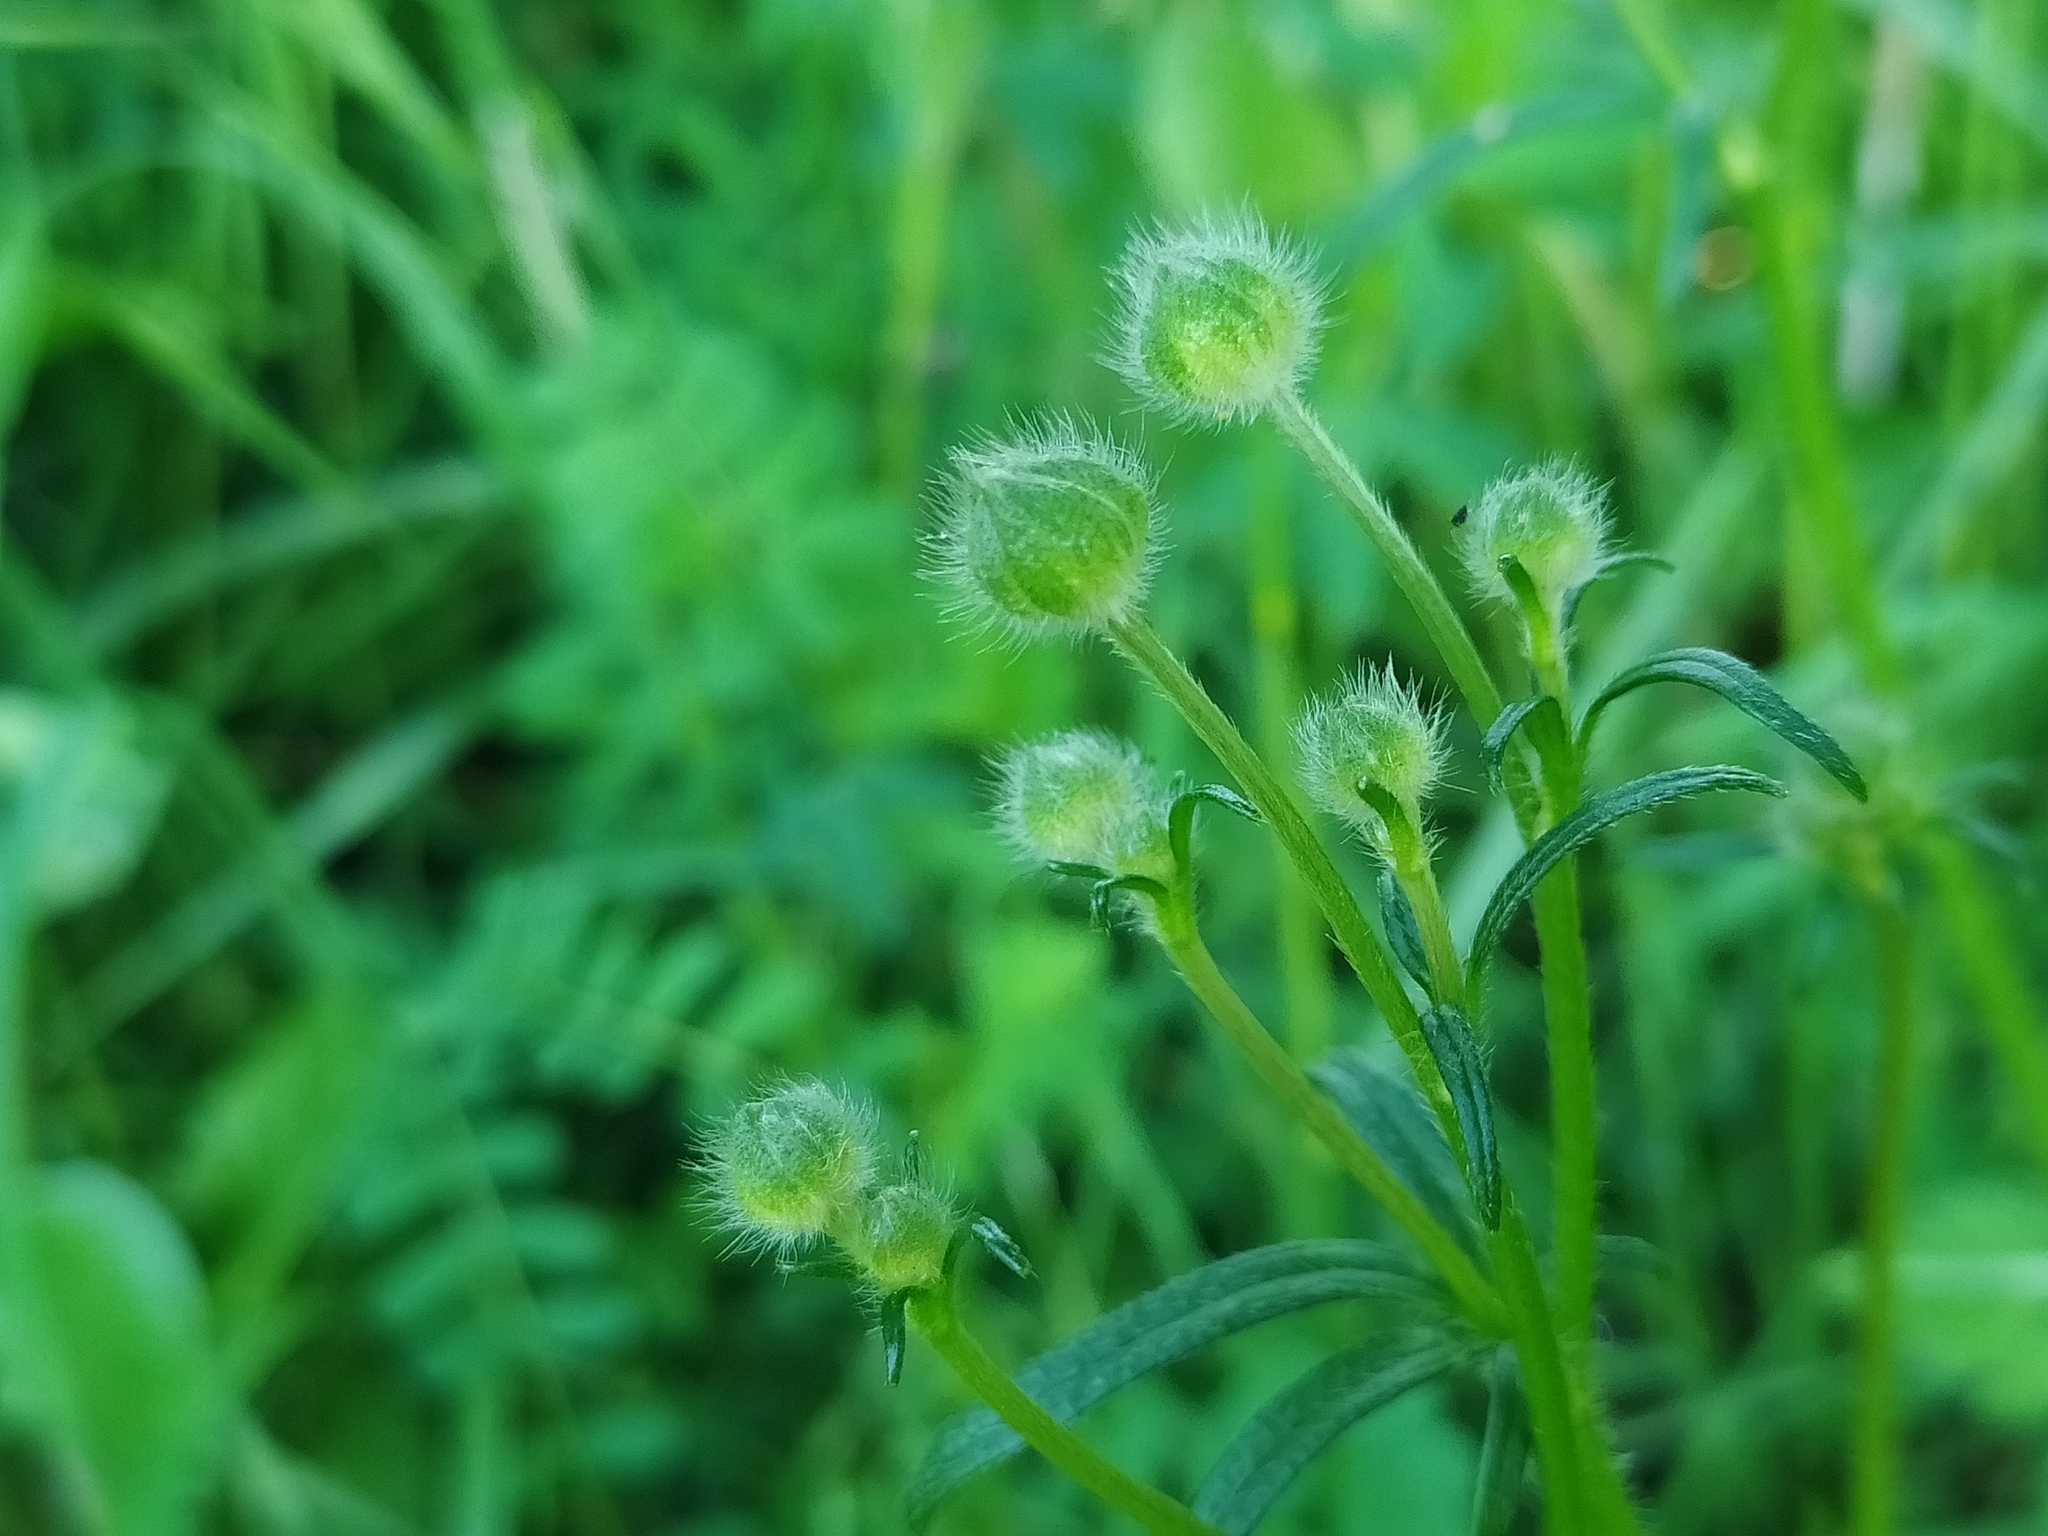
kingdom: Plantae
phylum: Tracheophyta
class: Magnoliopsida
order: Ranunculales
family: Ranunculaceae
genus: Ranunculus
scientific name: Ranunculus polyanthemos
